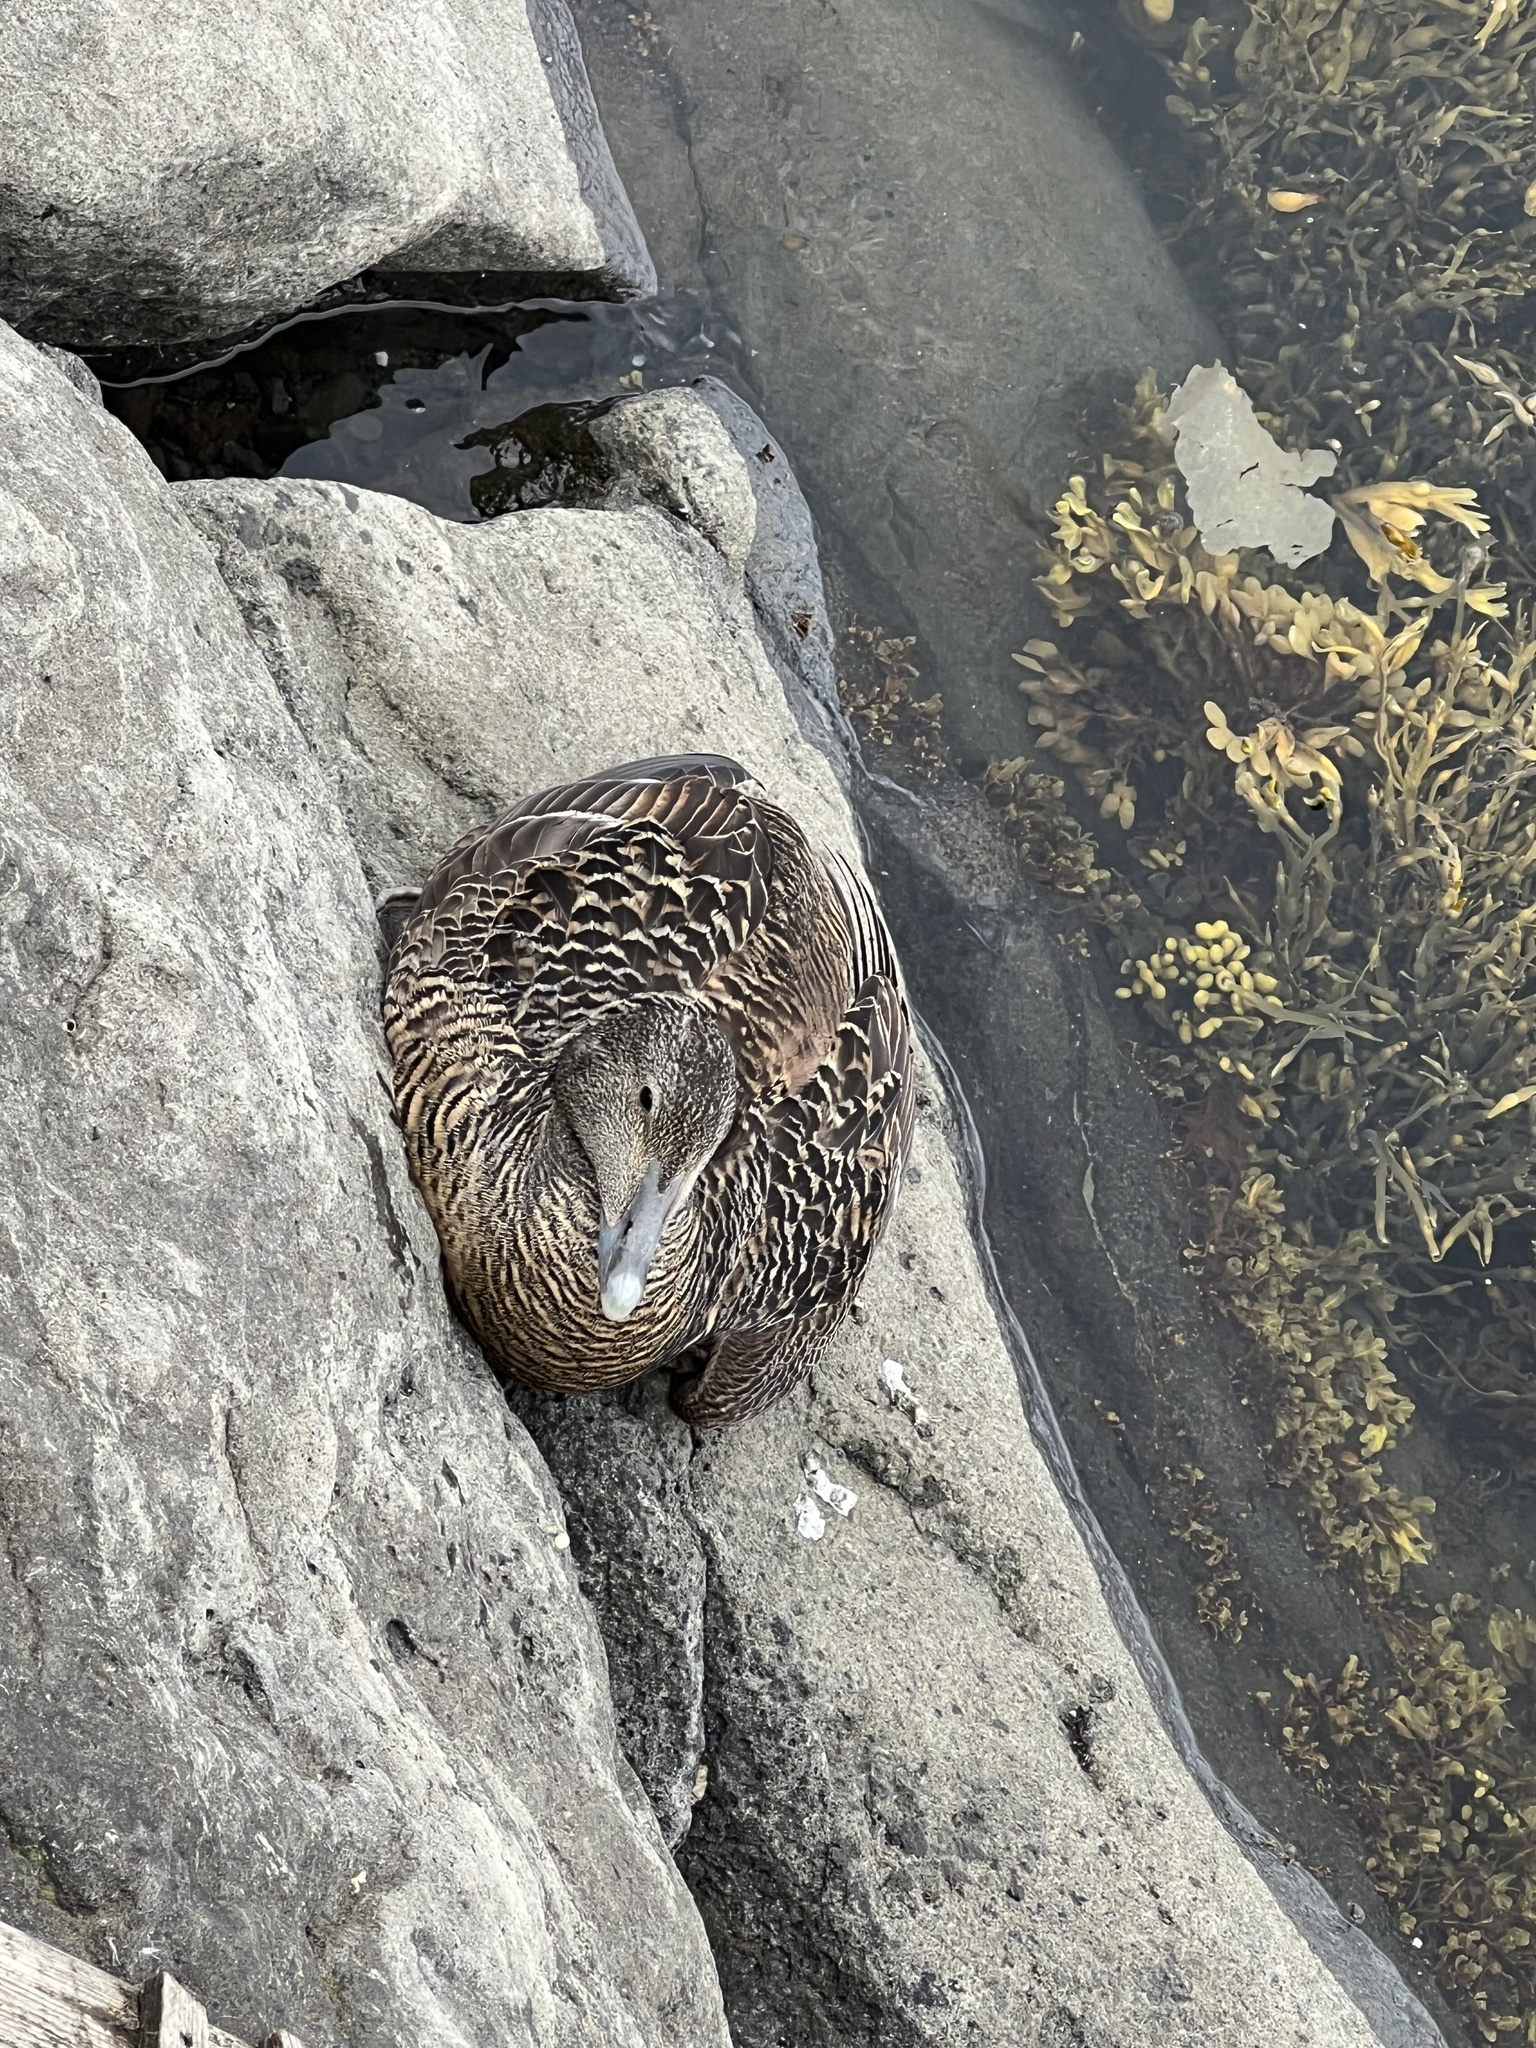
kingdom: Animalia
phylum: Chordata
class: Aves
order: Anseriformes
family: Anatidae
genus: Somateria
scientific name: Somateria mollissima
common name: Common eider
